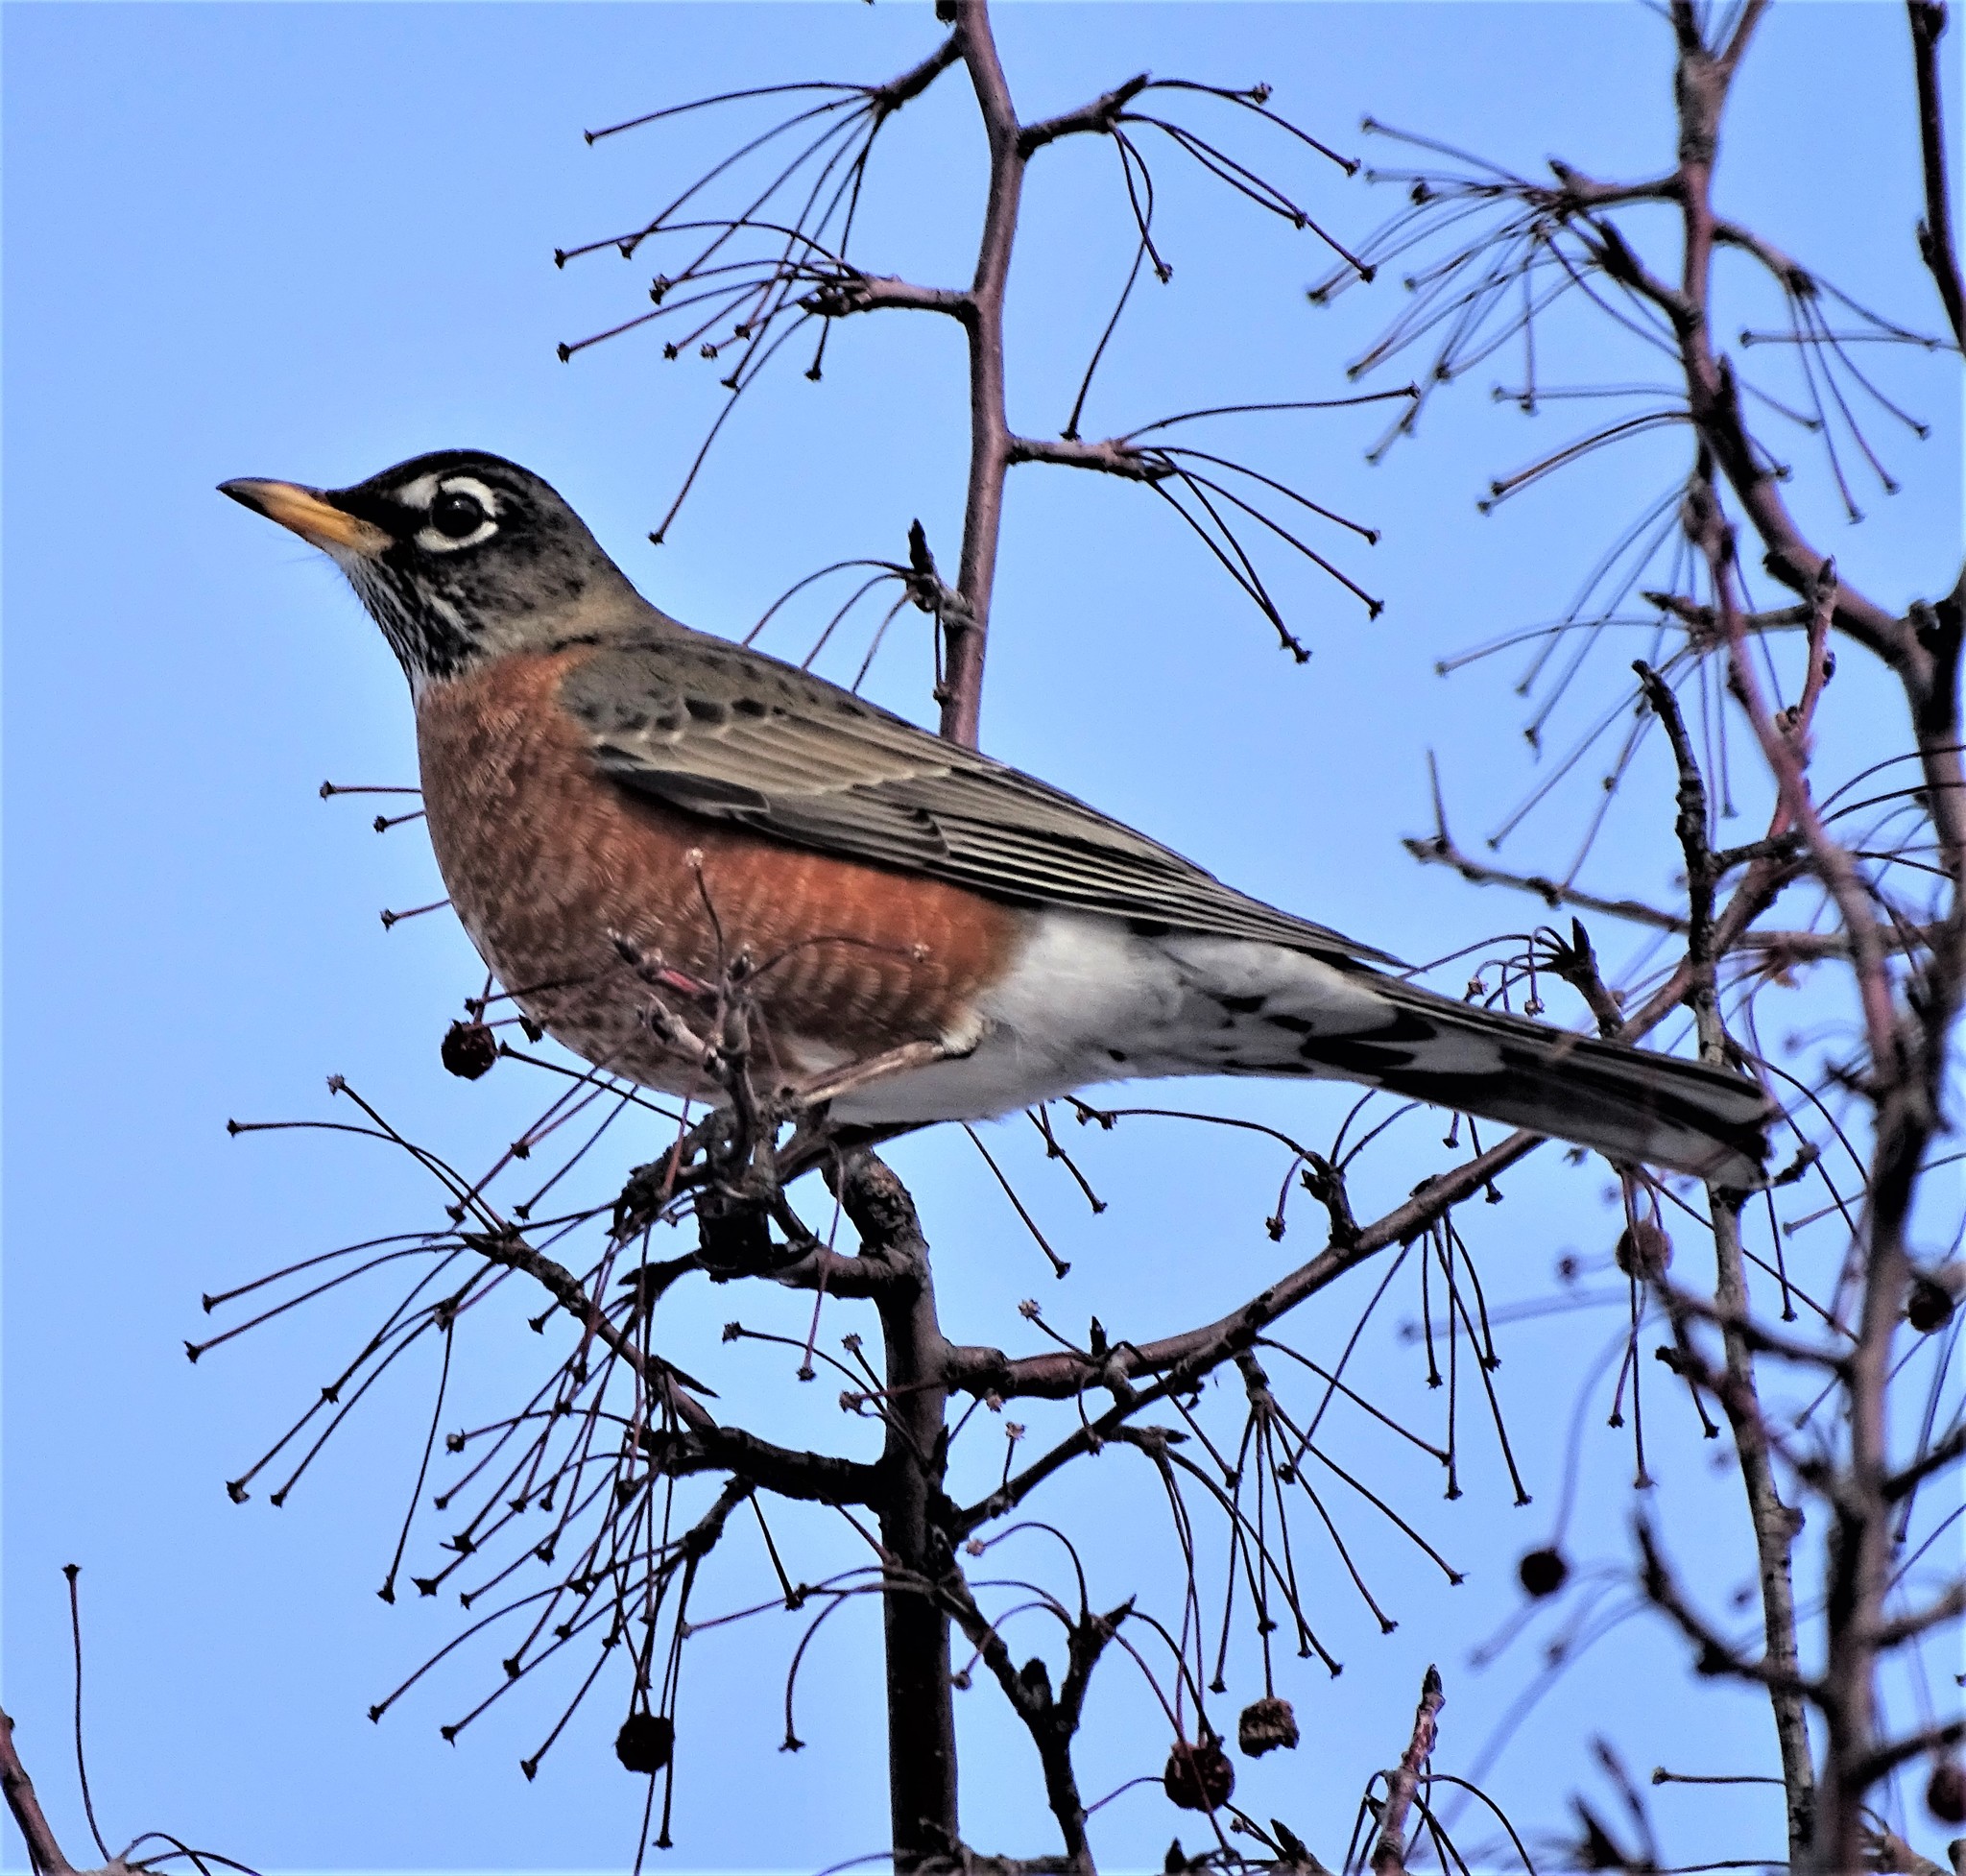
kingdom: Animalia
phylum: Chordata
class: Aves
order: Passeriformes
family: Turdidae
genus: Turdus
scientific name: Turdus migratorius
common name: American robin
